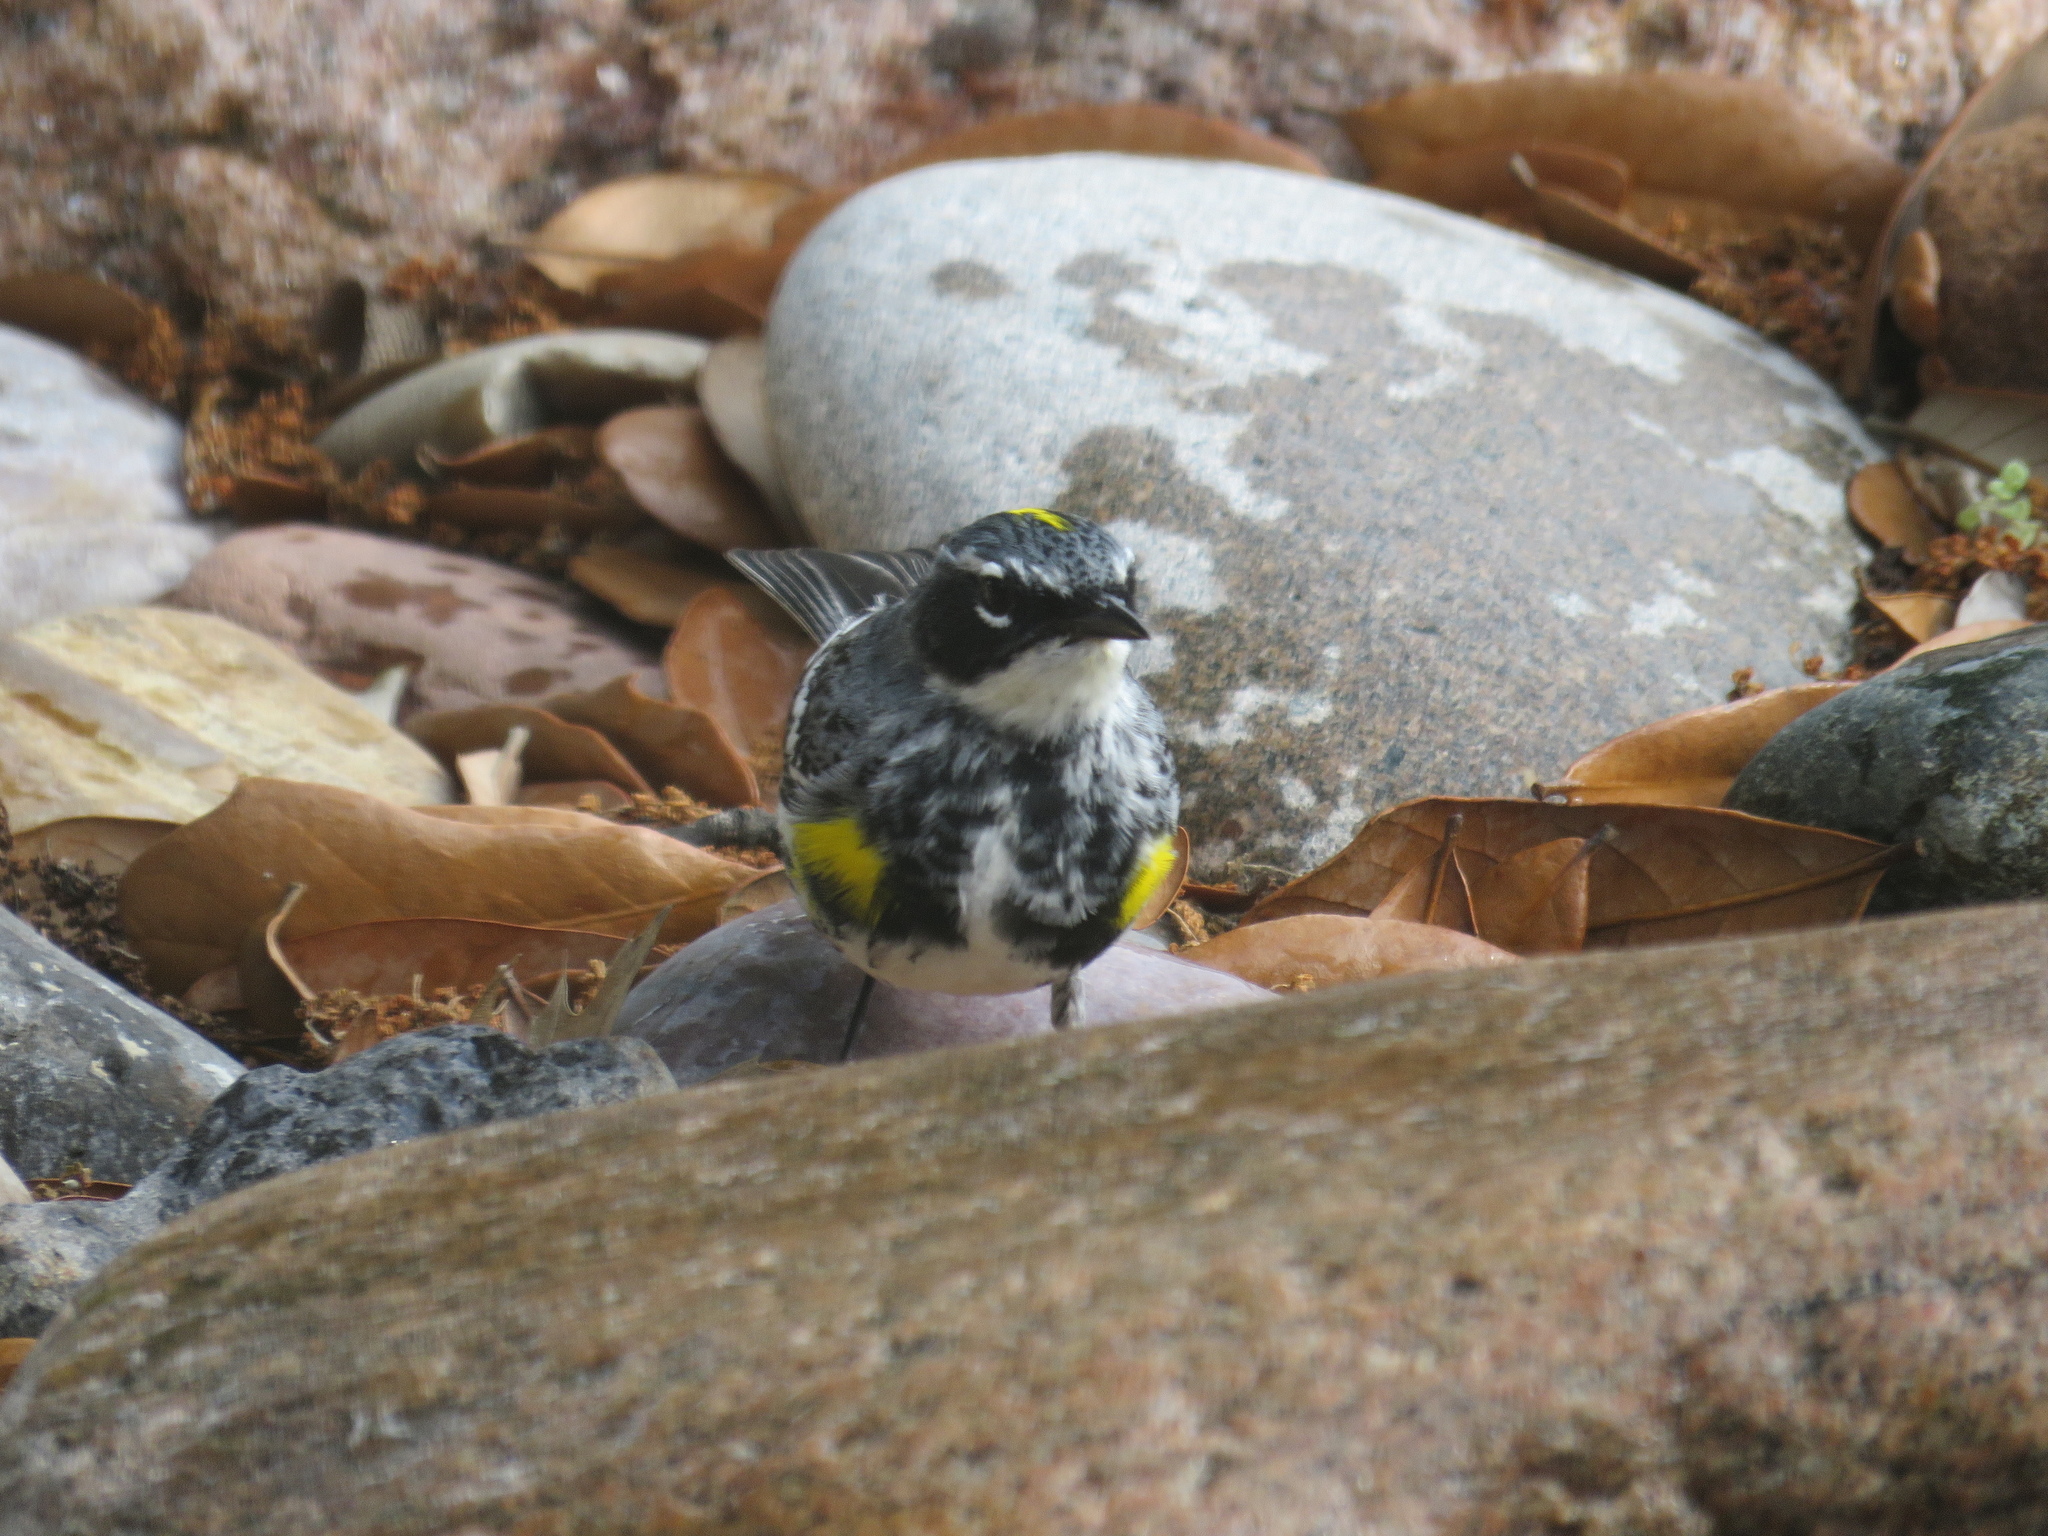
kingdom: Animalia
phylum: Chordata
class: Aves
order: Passeriformes
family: Parulidae
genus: Setophaga
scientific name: Setophaga coronata
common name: Myrtle warbler
